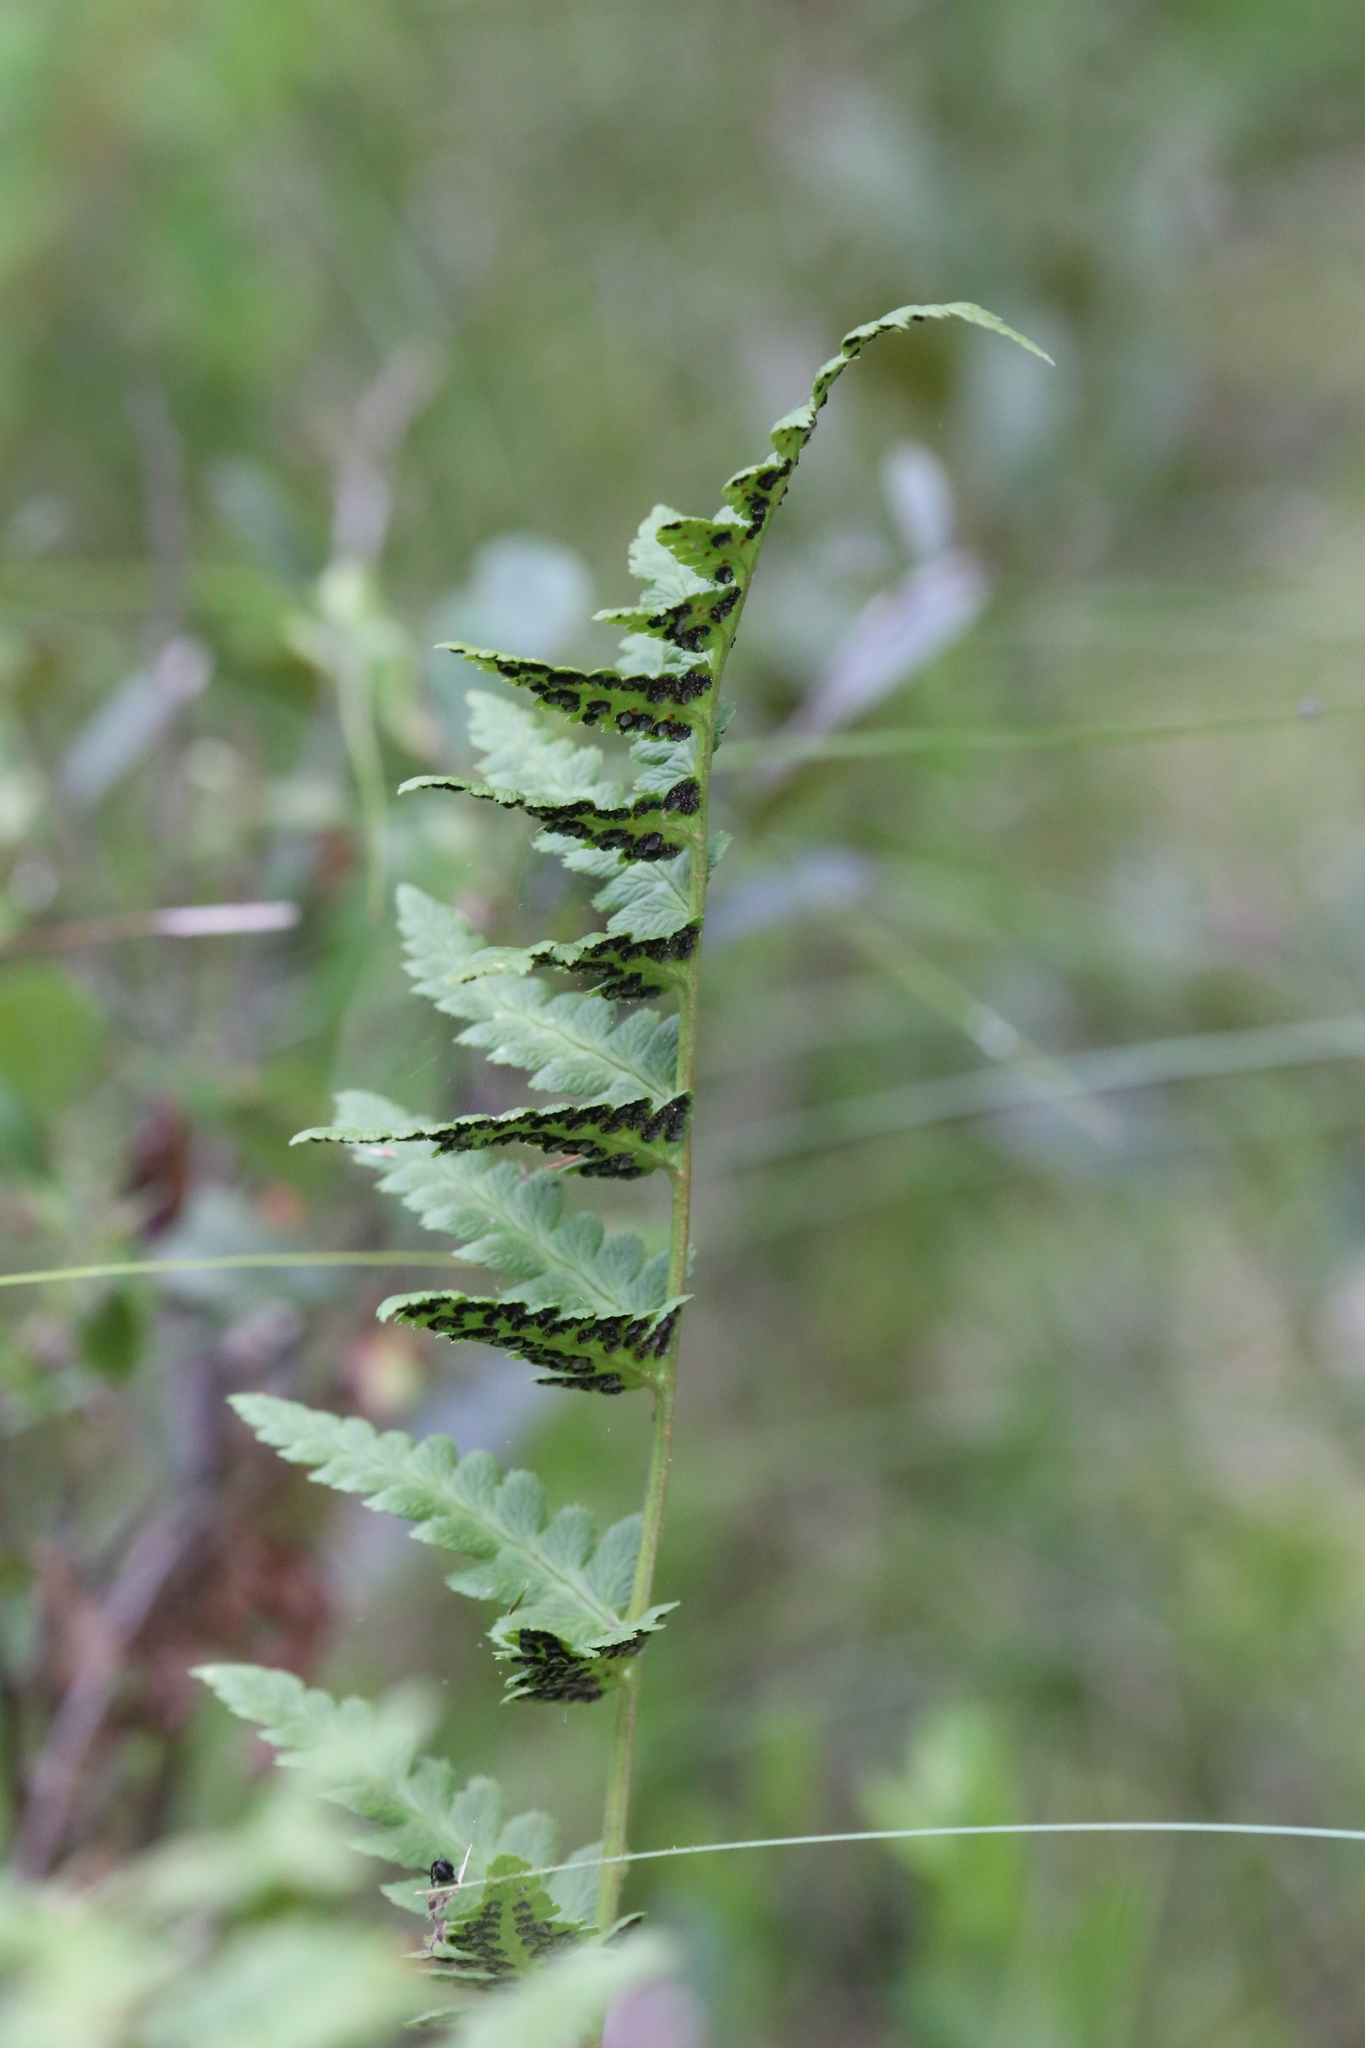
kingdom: Plantae
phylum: Tracheophyta
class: Polypodiopsida
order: Polypodiales
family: Dryopteridaceae
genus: Dryopteris
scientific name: Dryopteris cristata
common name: Crested wood fern
